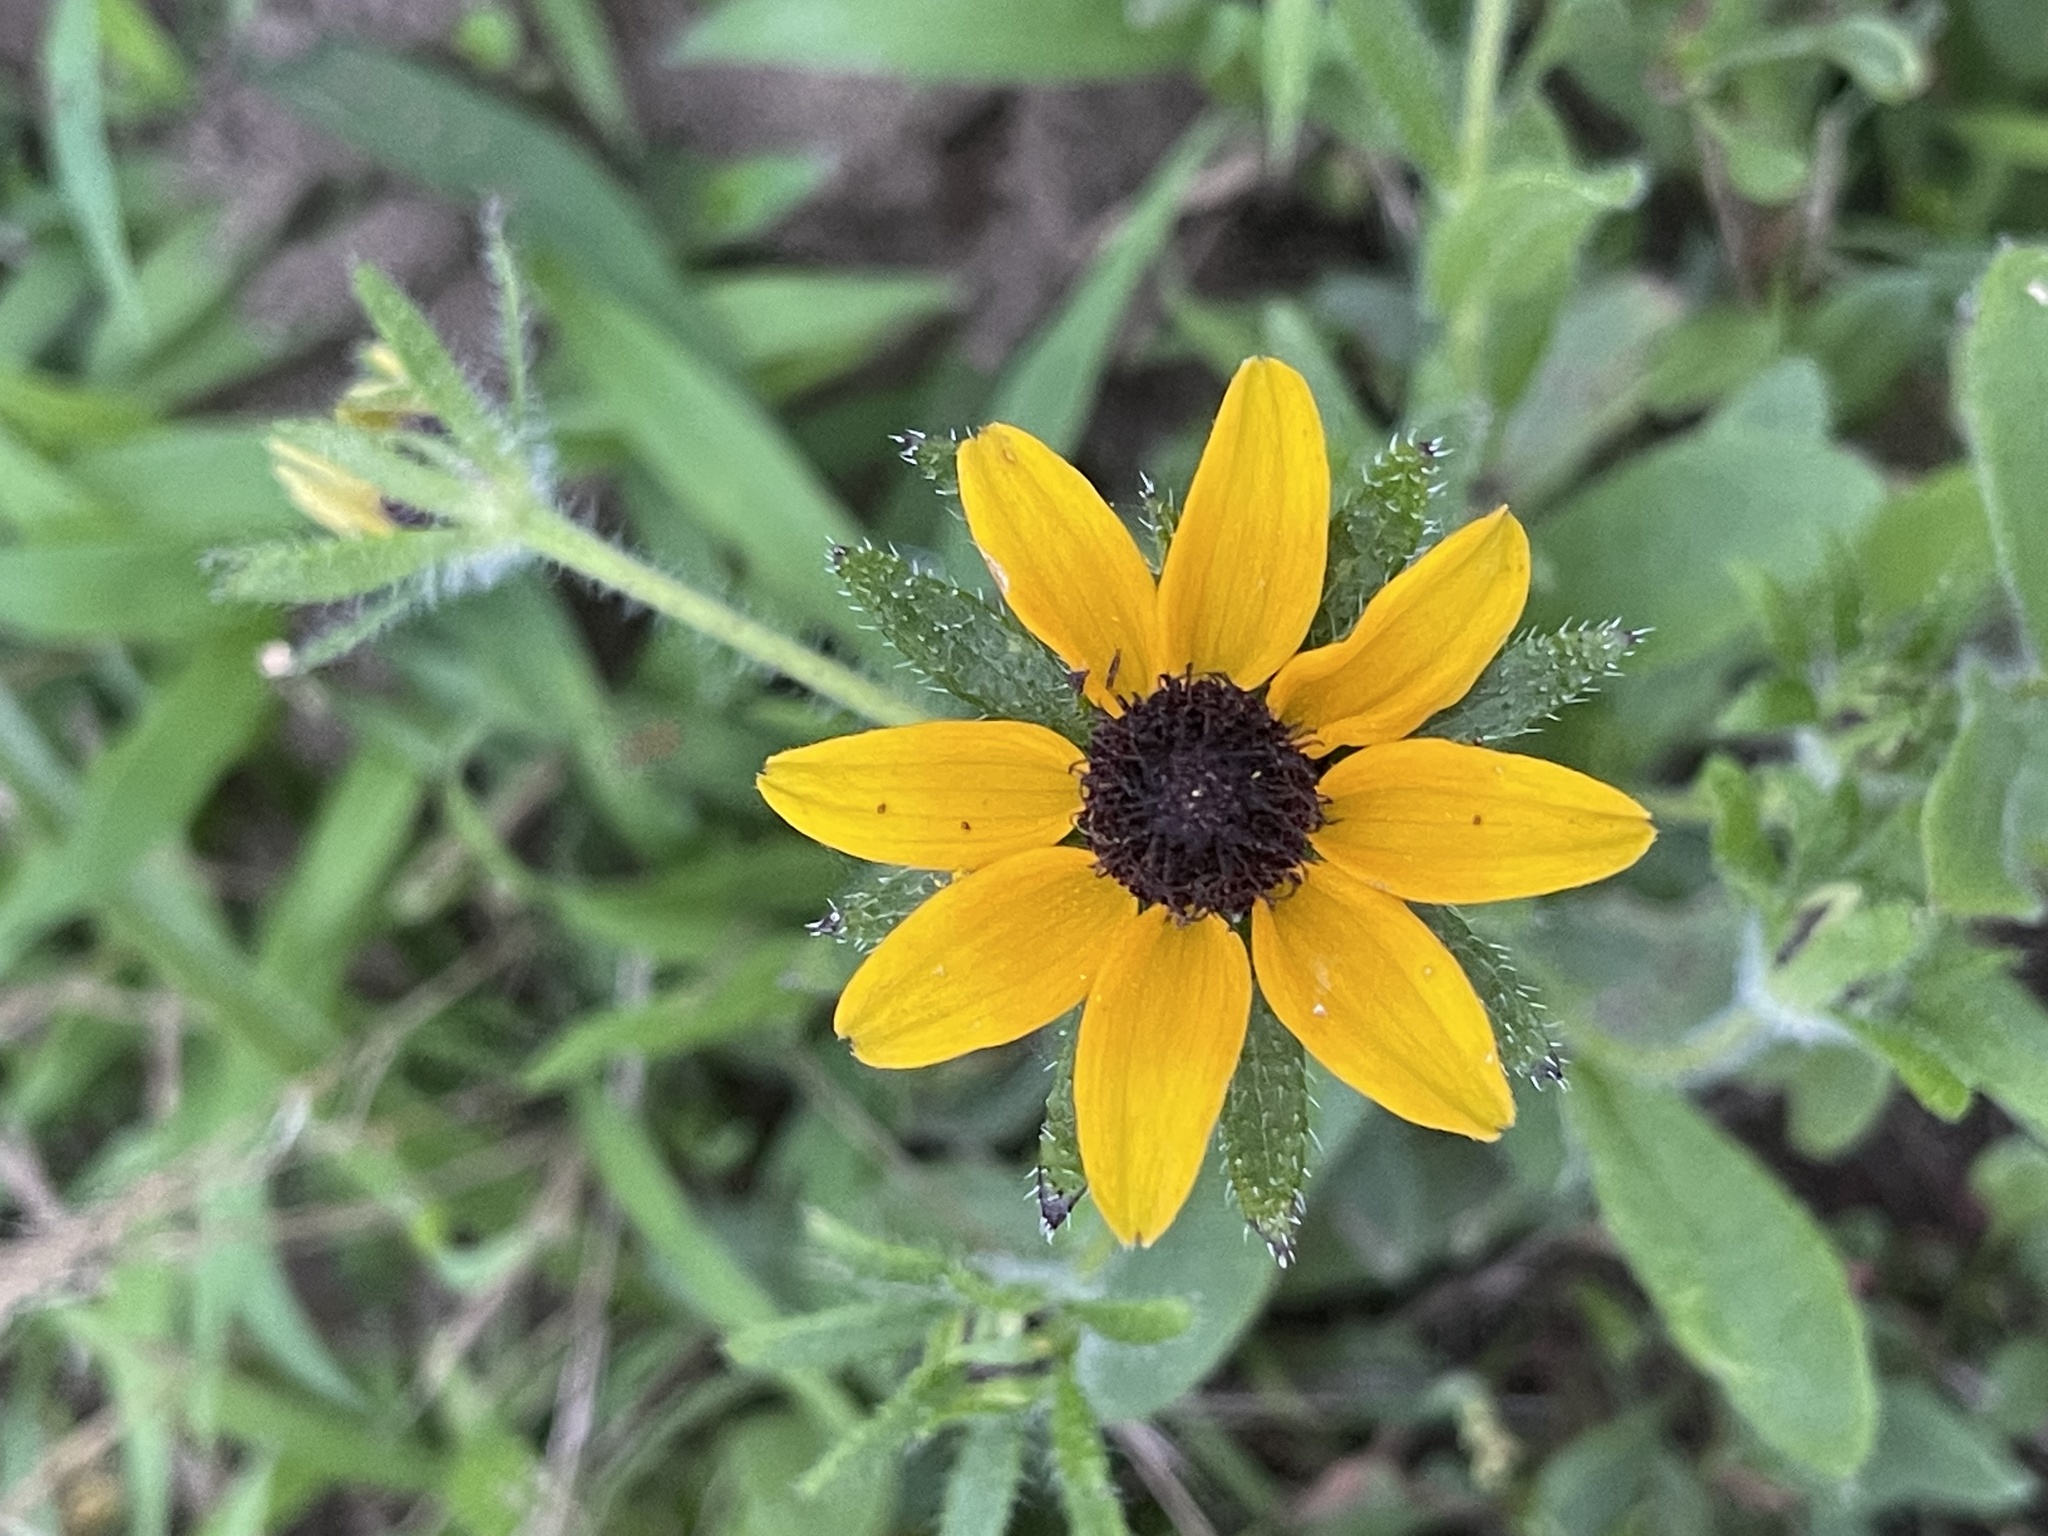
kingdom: Plantae
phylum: Tracheophyta
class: Magnoliopsida
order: Asterales
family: Asteraceae
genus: Rudbeckia
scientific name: Rudbeckia hirta
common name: Black-eyed-susan
